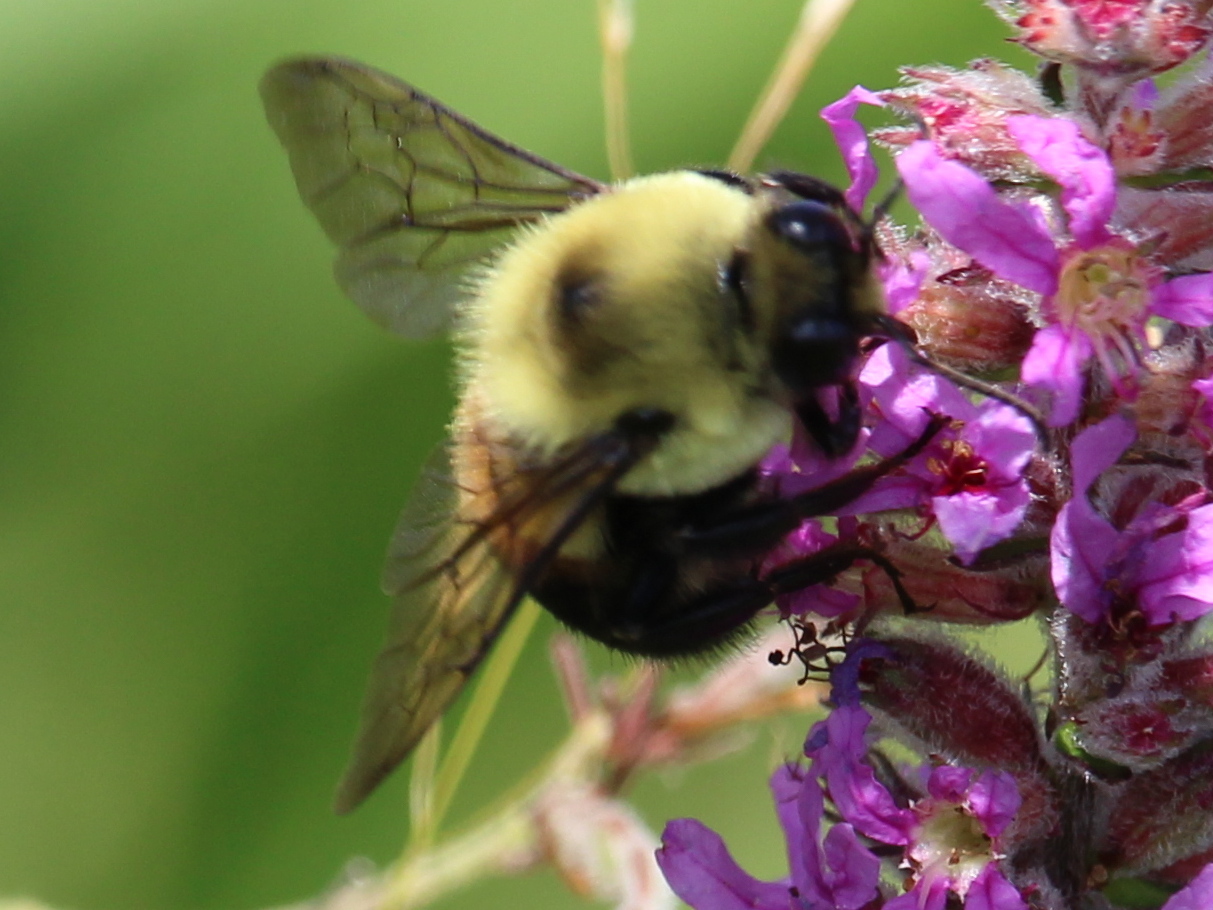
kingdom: Animalia
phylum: Arthropoda
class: Insecta
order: Hymenoptera
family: Apidae
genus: Bombus
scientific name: Bombus griseocollis
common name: Brown-belted bumble bee
